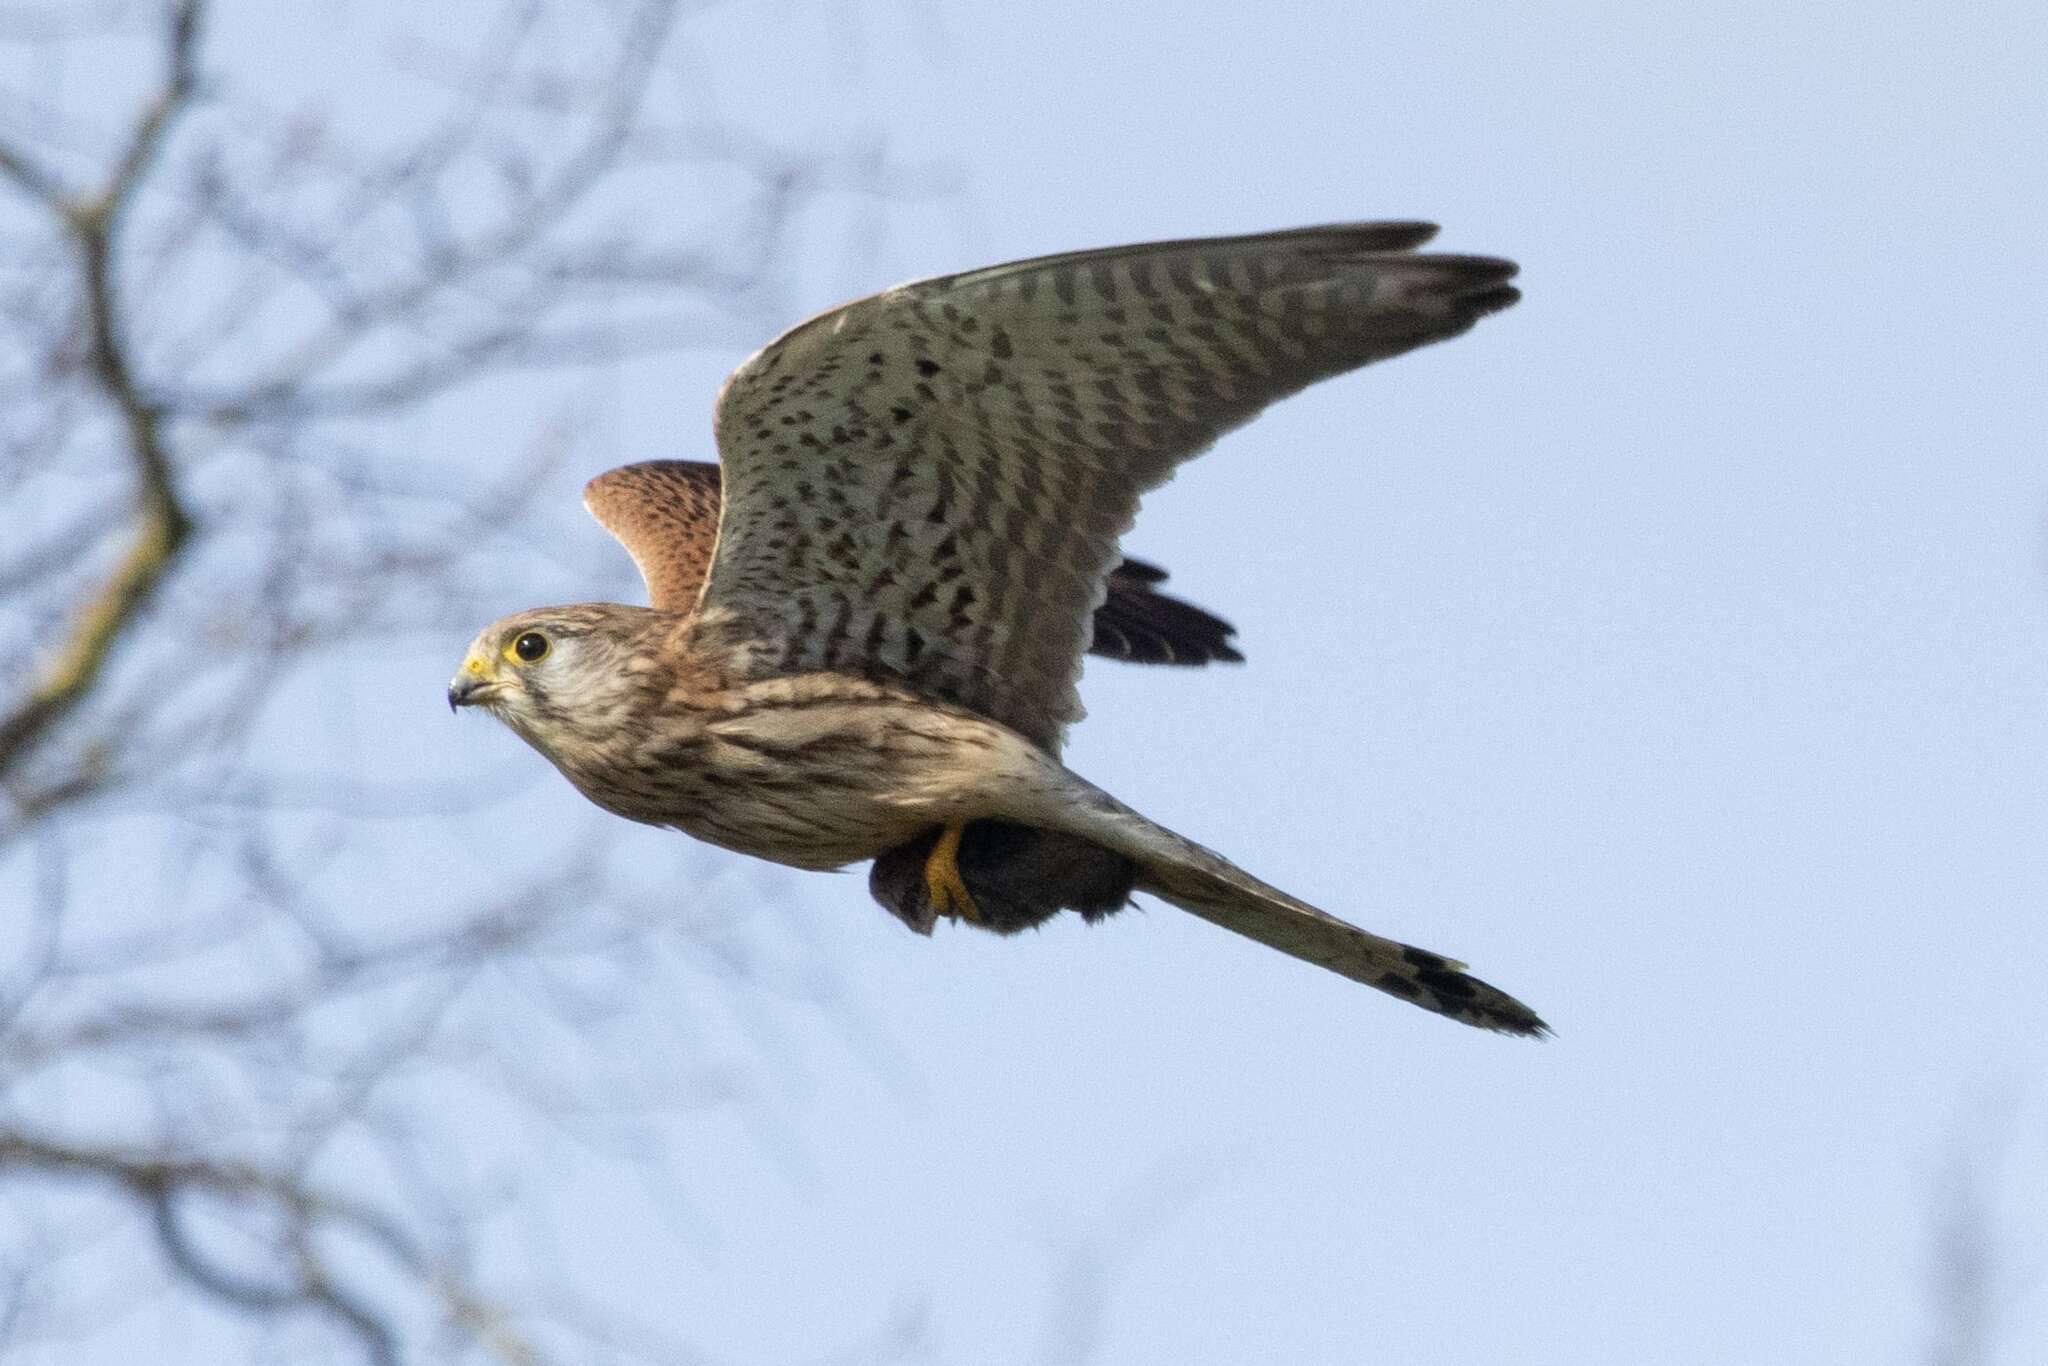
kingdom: Animalia
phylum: Chordata
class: Aves
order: Falconiformes
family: Falconidae
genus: Falco
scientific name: Falco tinnunculus
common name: Common kestrel
